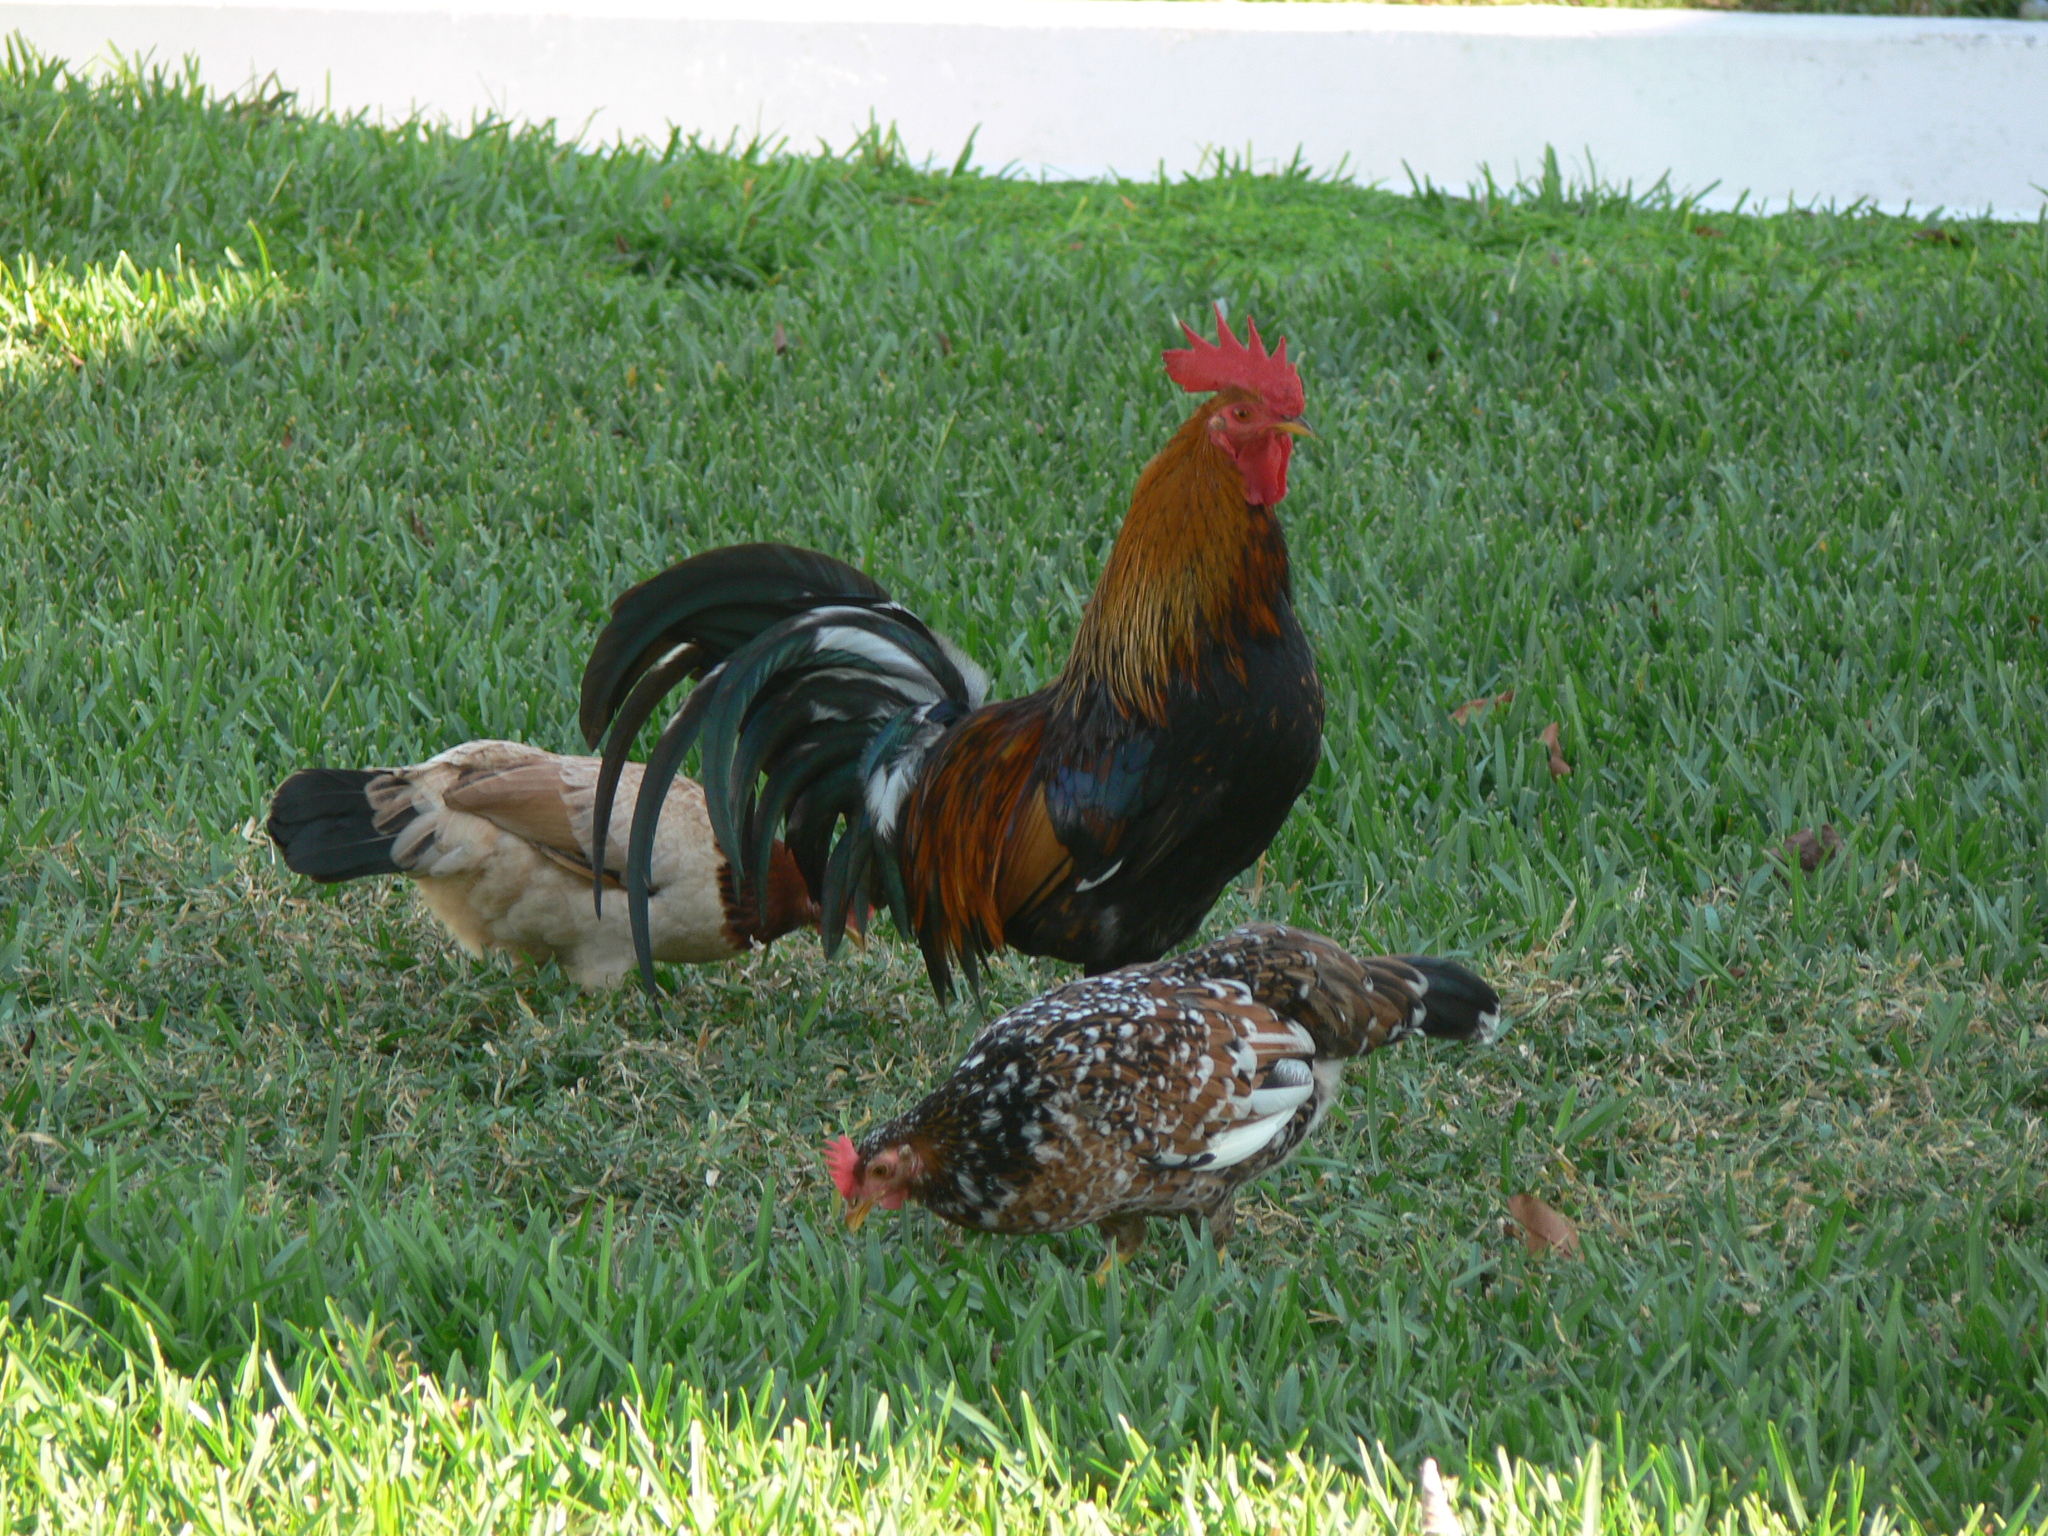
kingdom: Animalia
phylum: Chordata
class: Aves
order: Galliformes
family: Phasianidae
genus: Gallus
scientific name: Gallus gallus
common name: Red junglefowl
